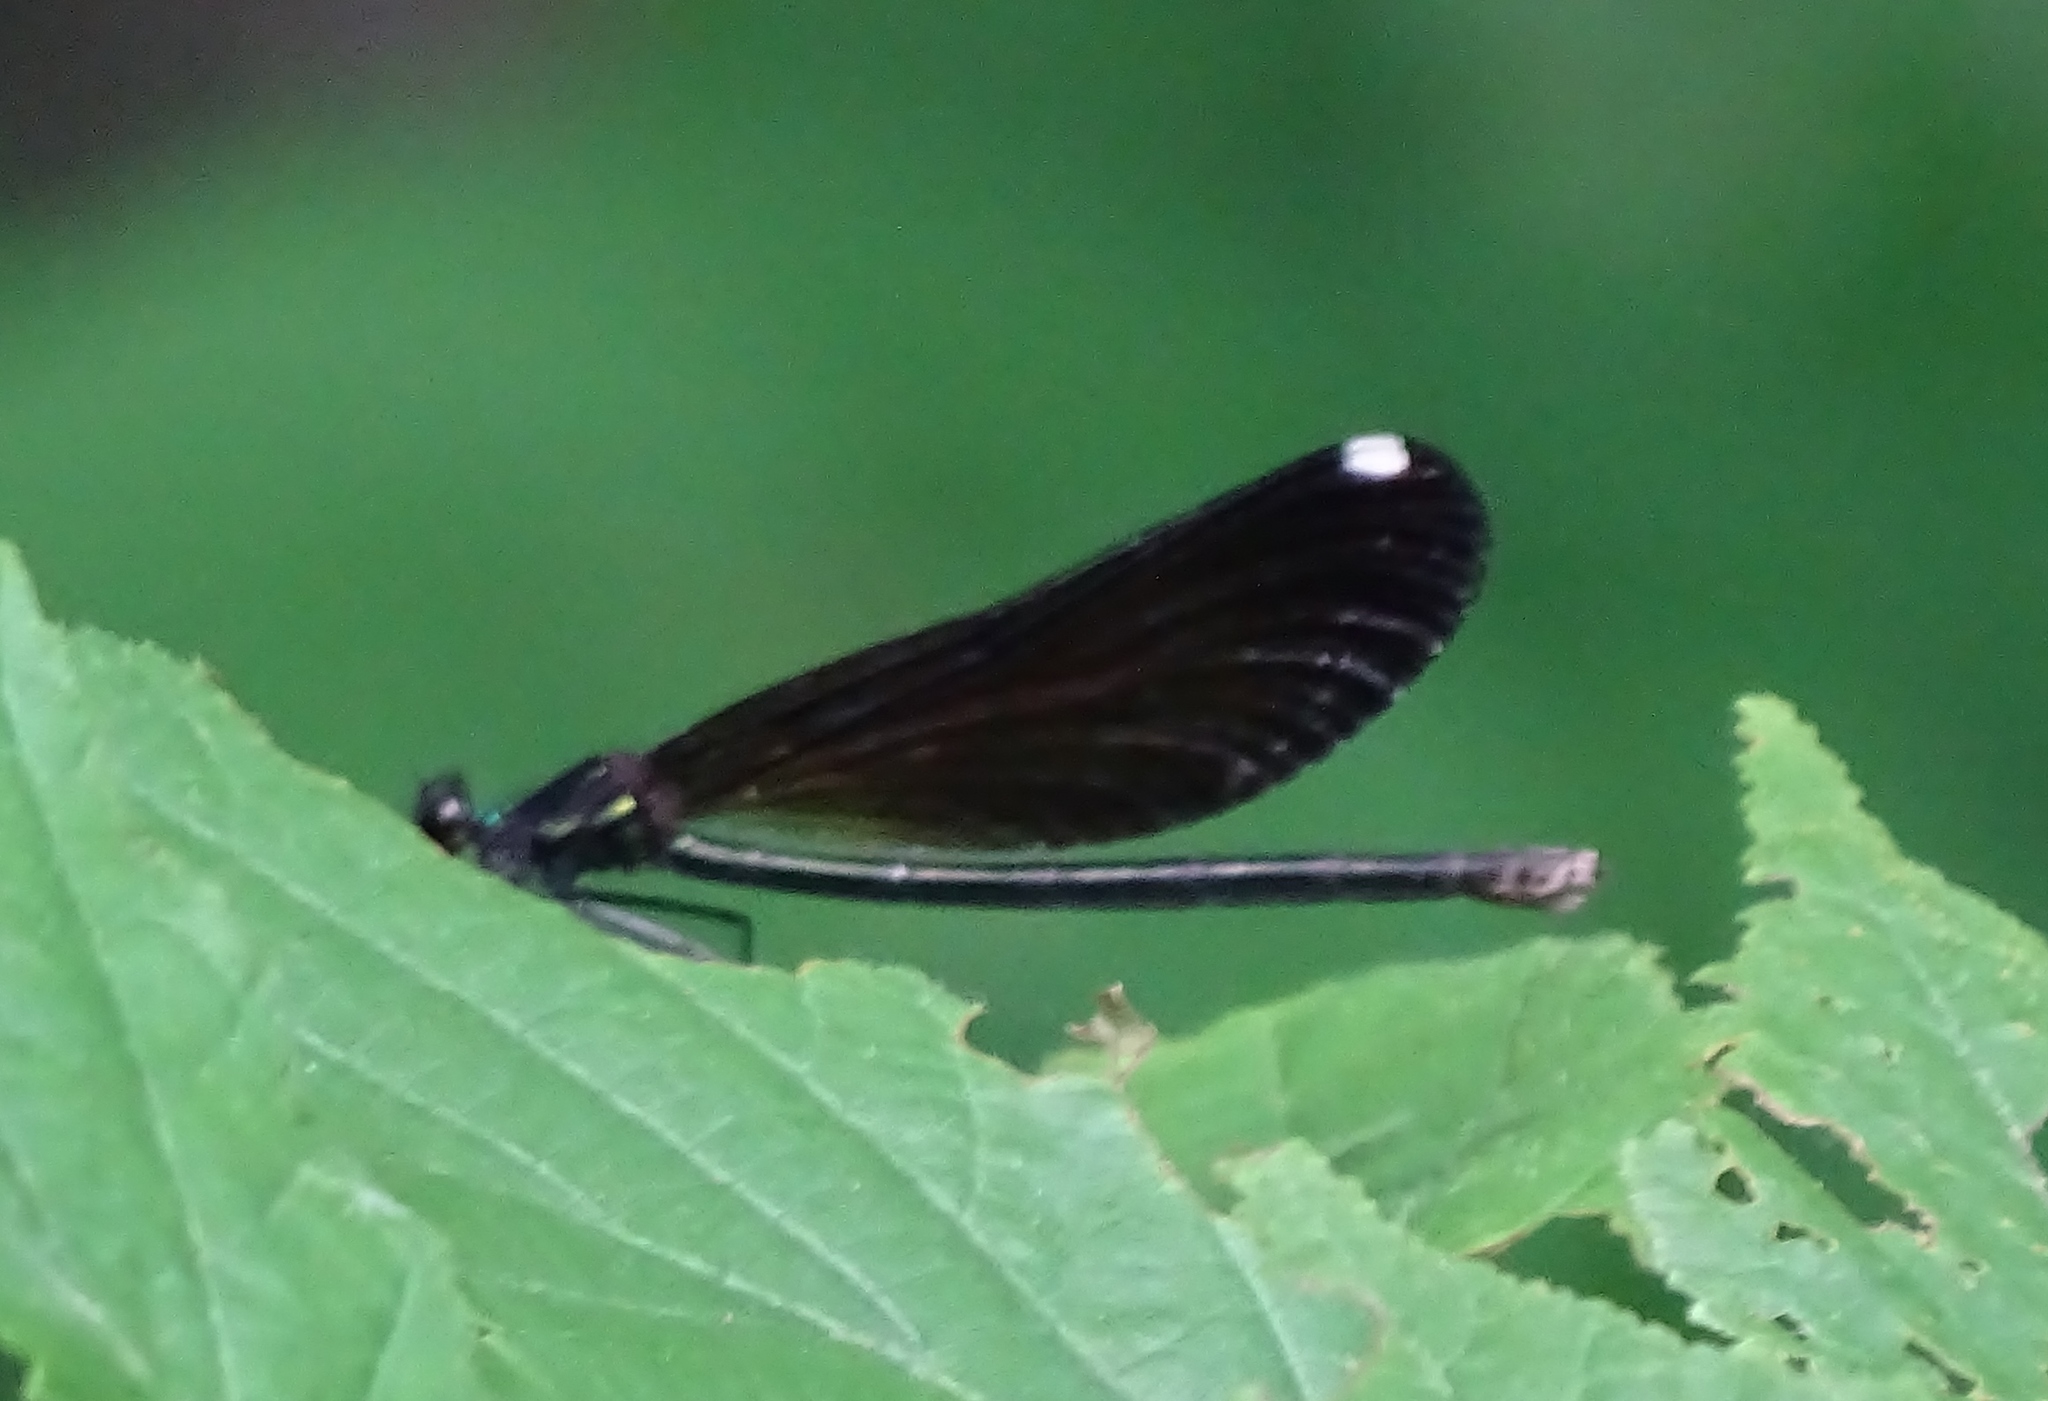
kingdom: Animalia
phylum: Arthropoda
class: Insecta
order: Odonata
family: Calopterygidae
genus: Calopteryx
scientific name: Calopteryx maculata
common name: Ebony jewelwing
